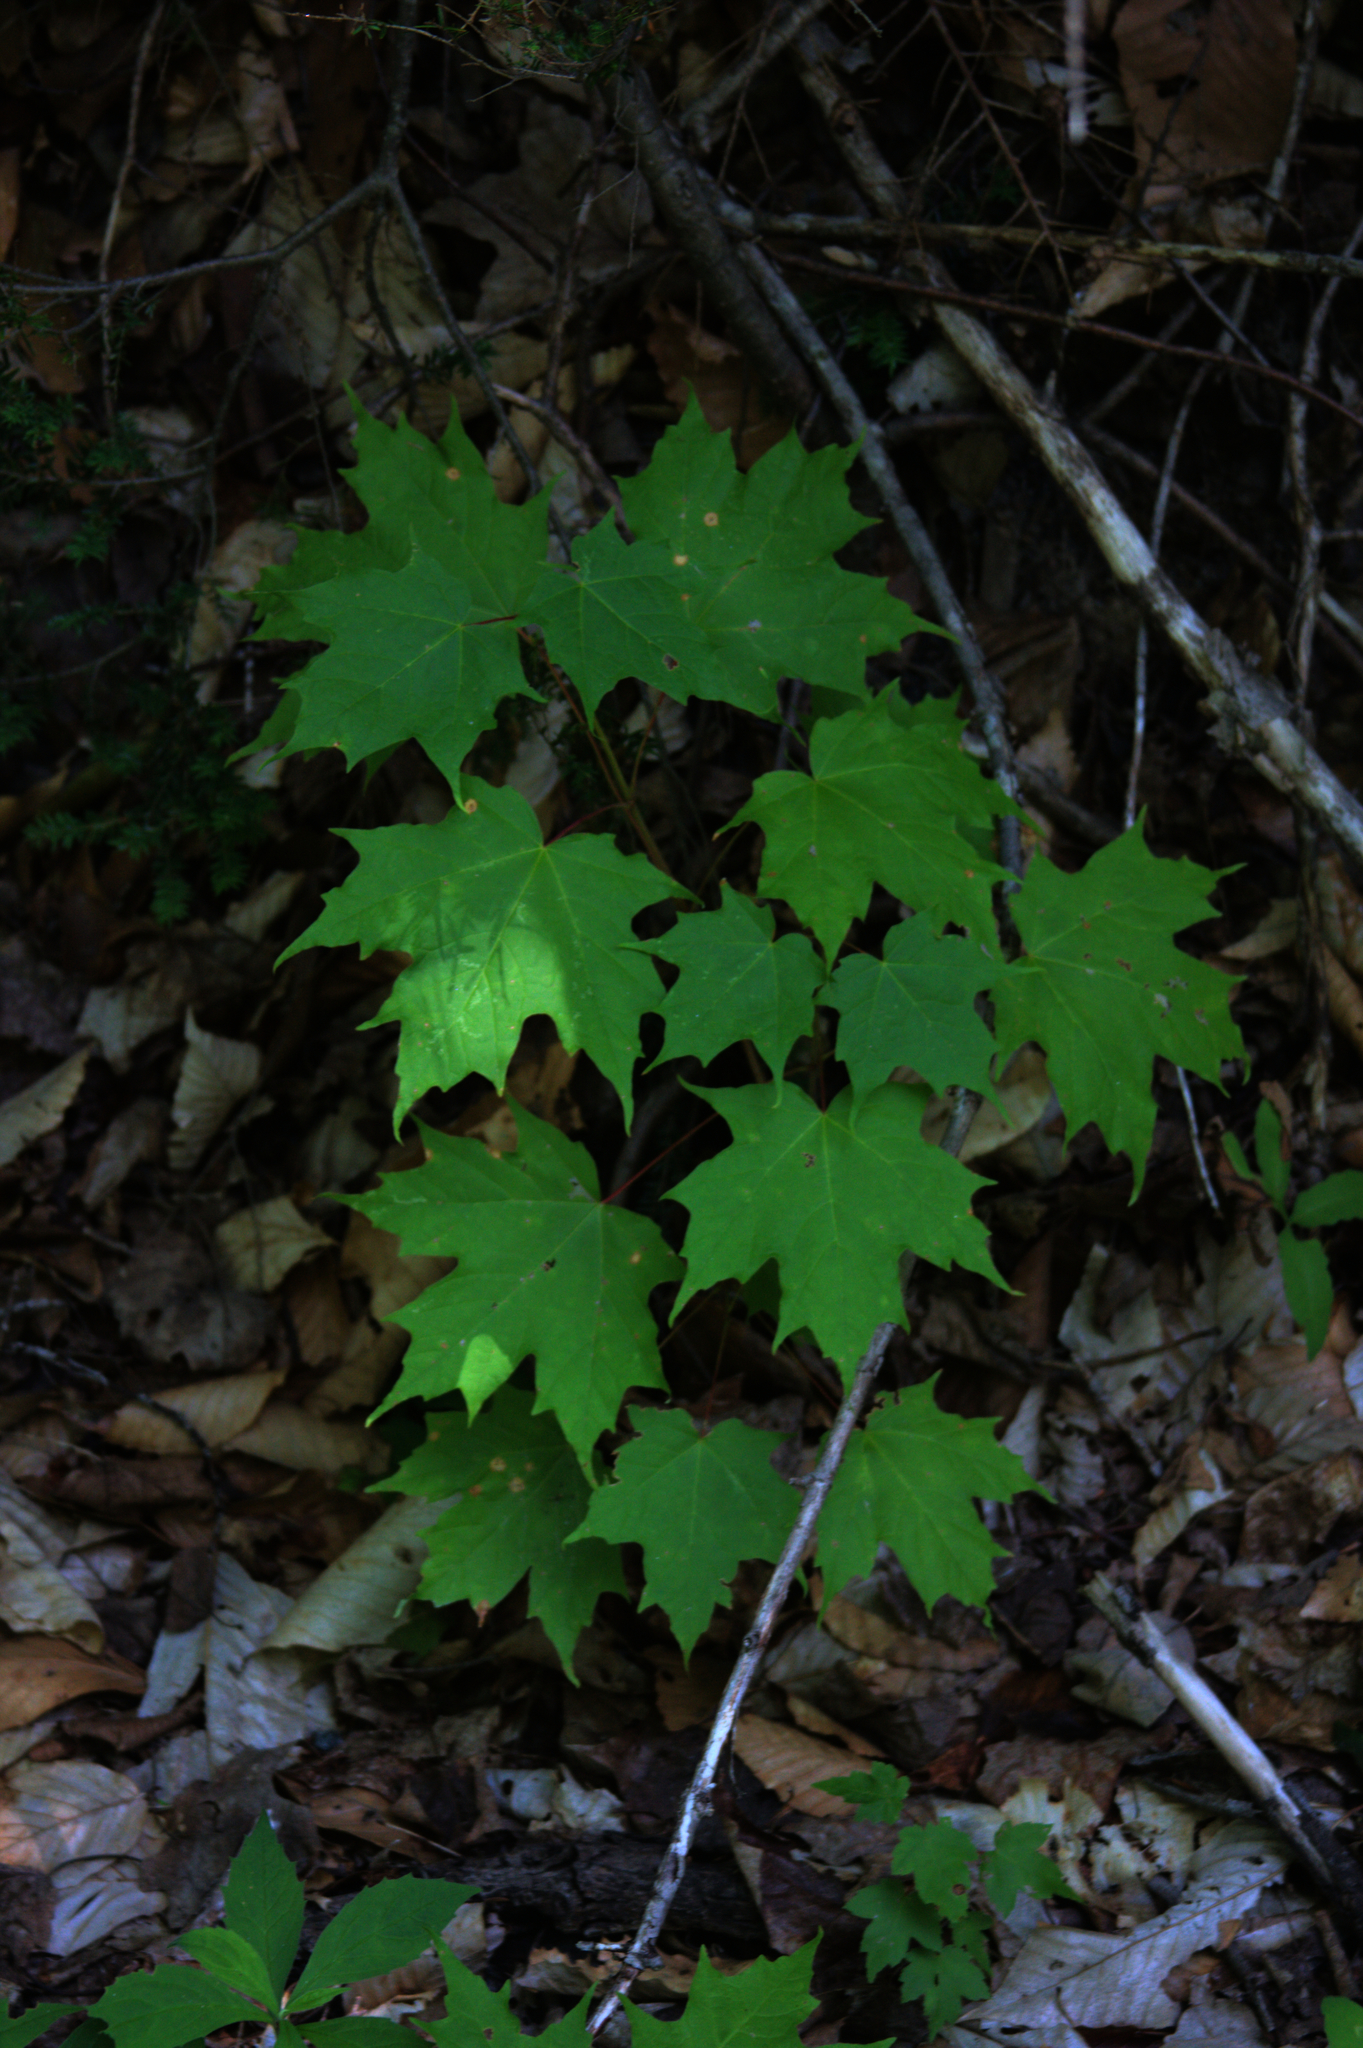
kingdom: Plantae
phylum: Tracheophyta
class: Magnoliopsida
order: Sapindales
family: Sapindaceae
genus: Acer
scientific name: Acer saccharum
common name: Sugar maple
